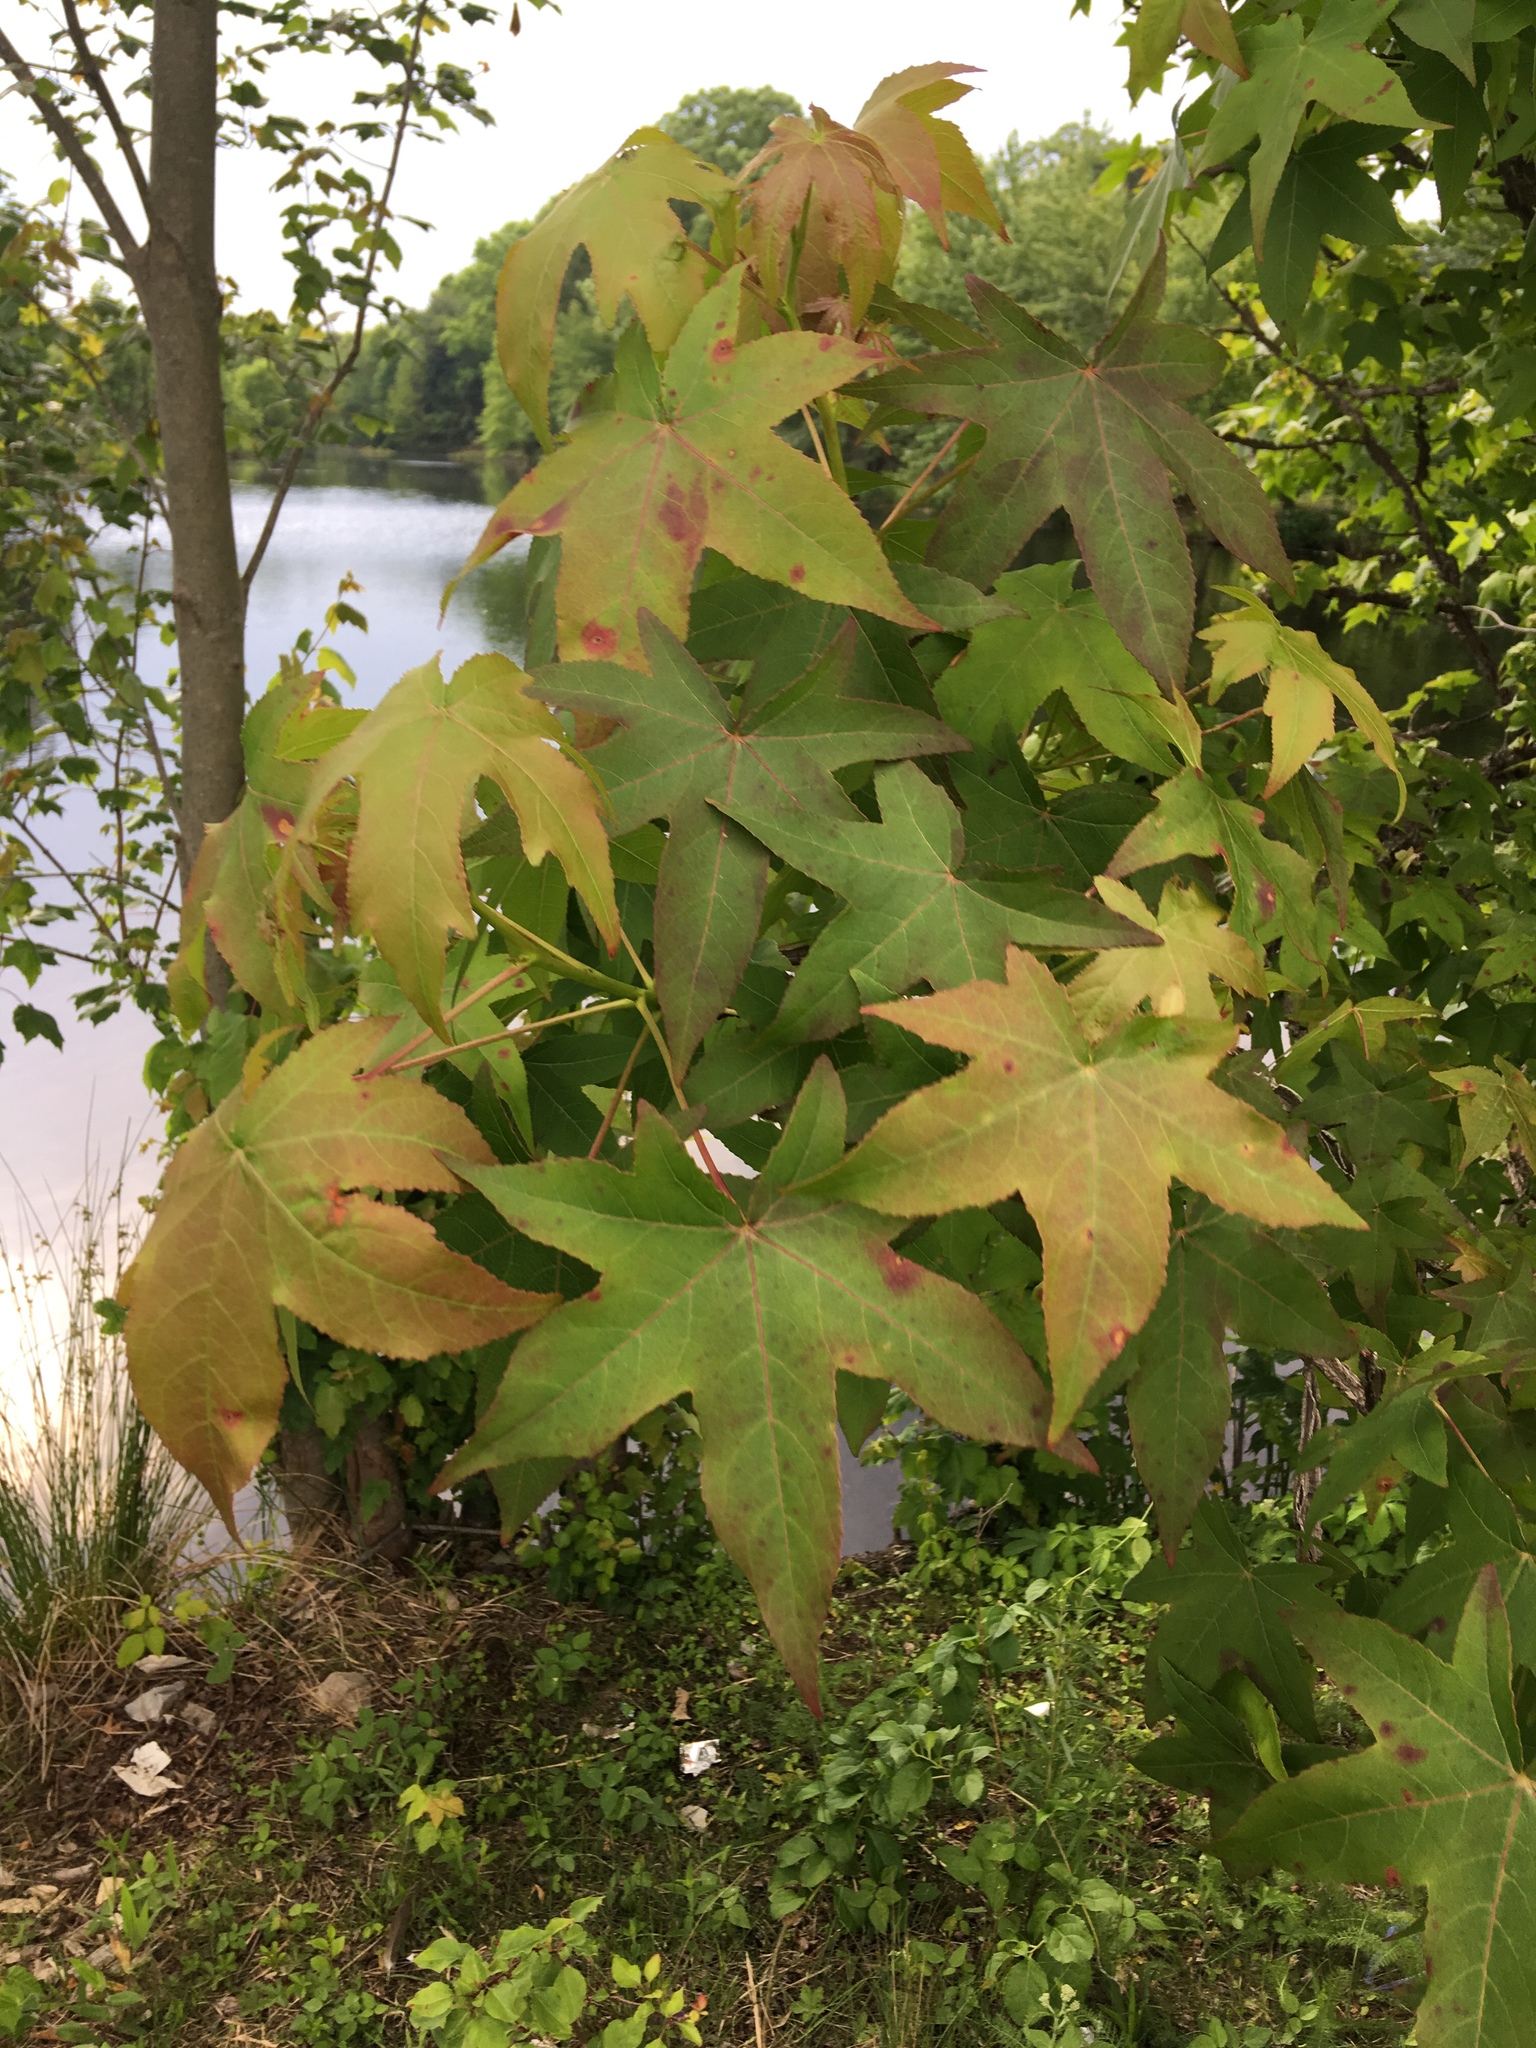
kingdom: Plantae
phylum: Tracheophyta
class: Magnoliopsida
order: Saxifragales
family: Altingiaceae
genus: Liquidambar
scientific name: Liquidambar styraciflua
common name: Sweet gum
